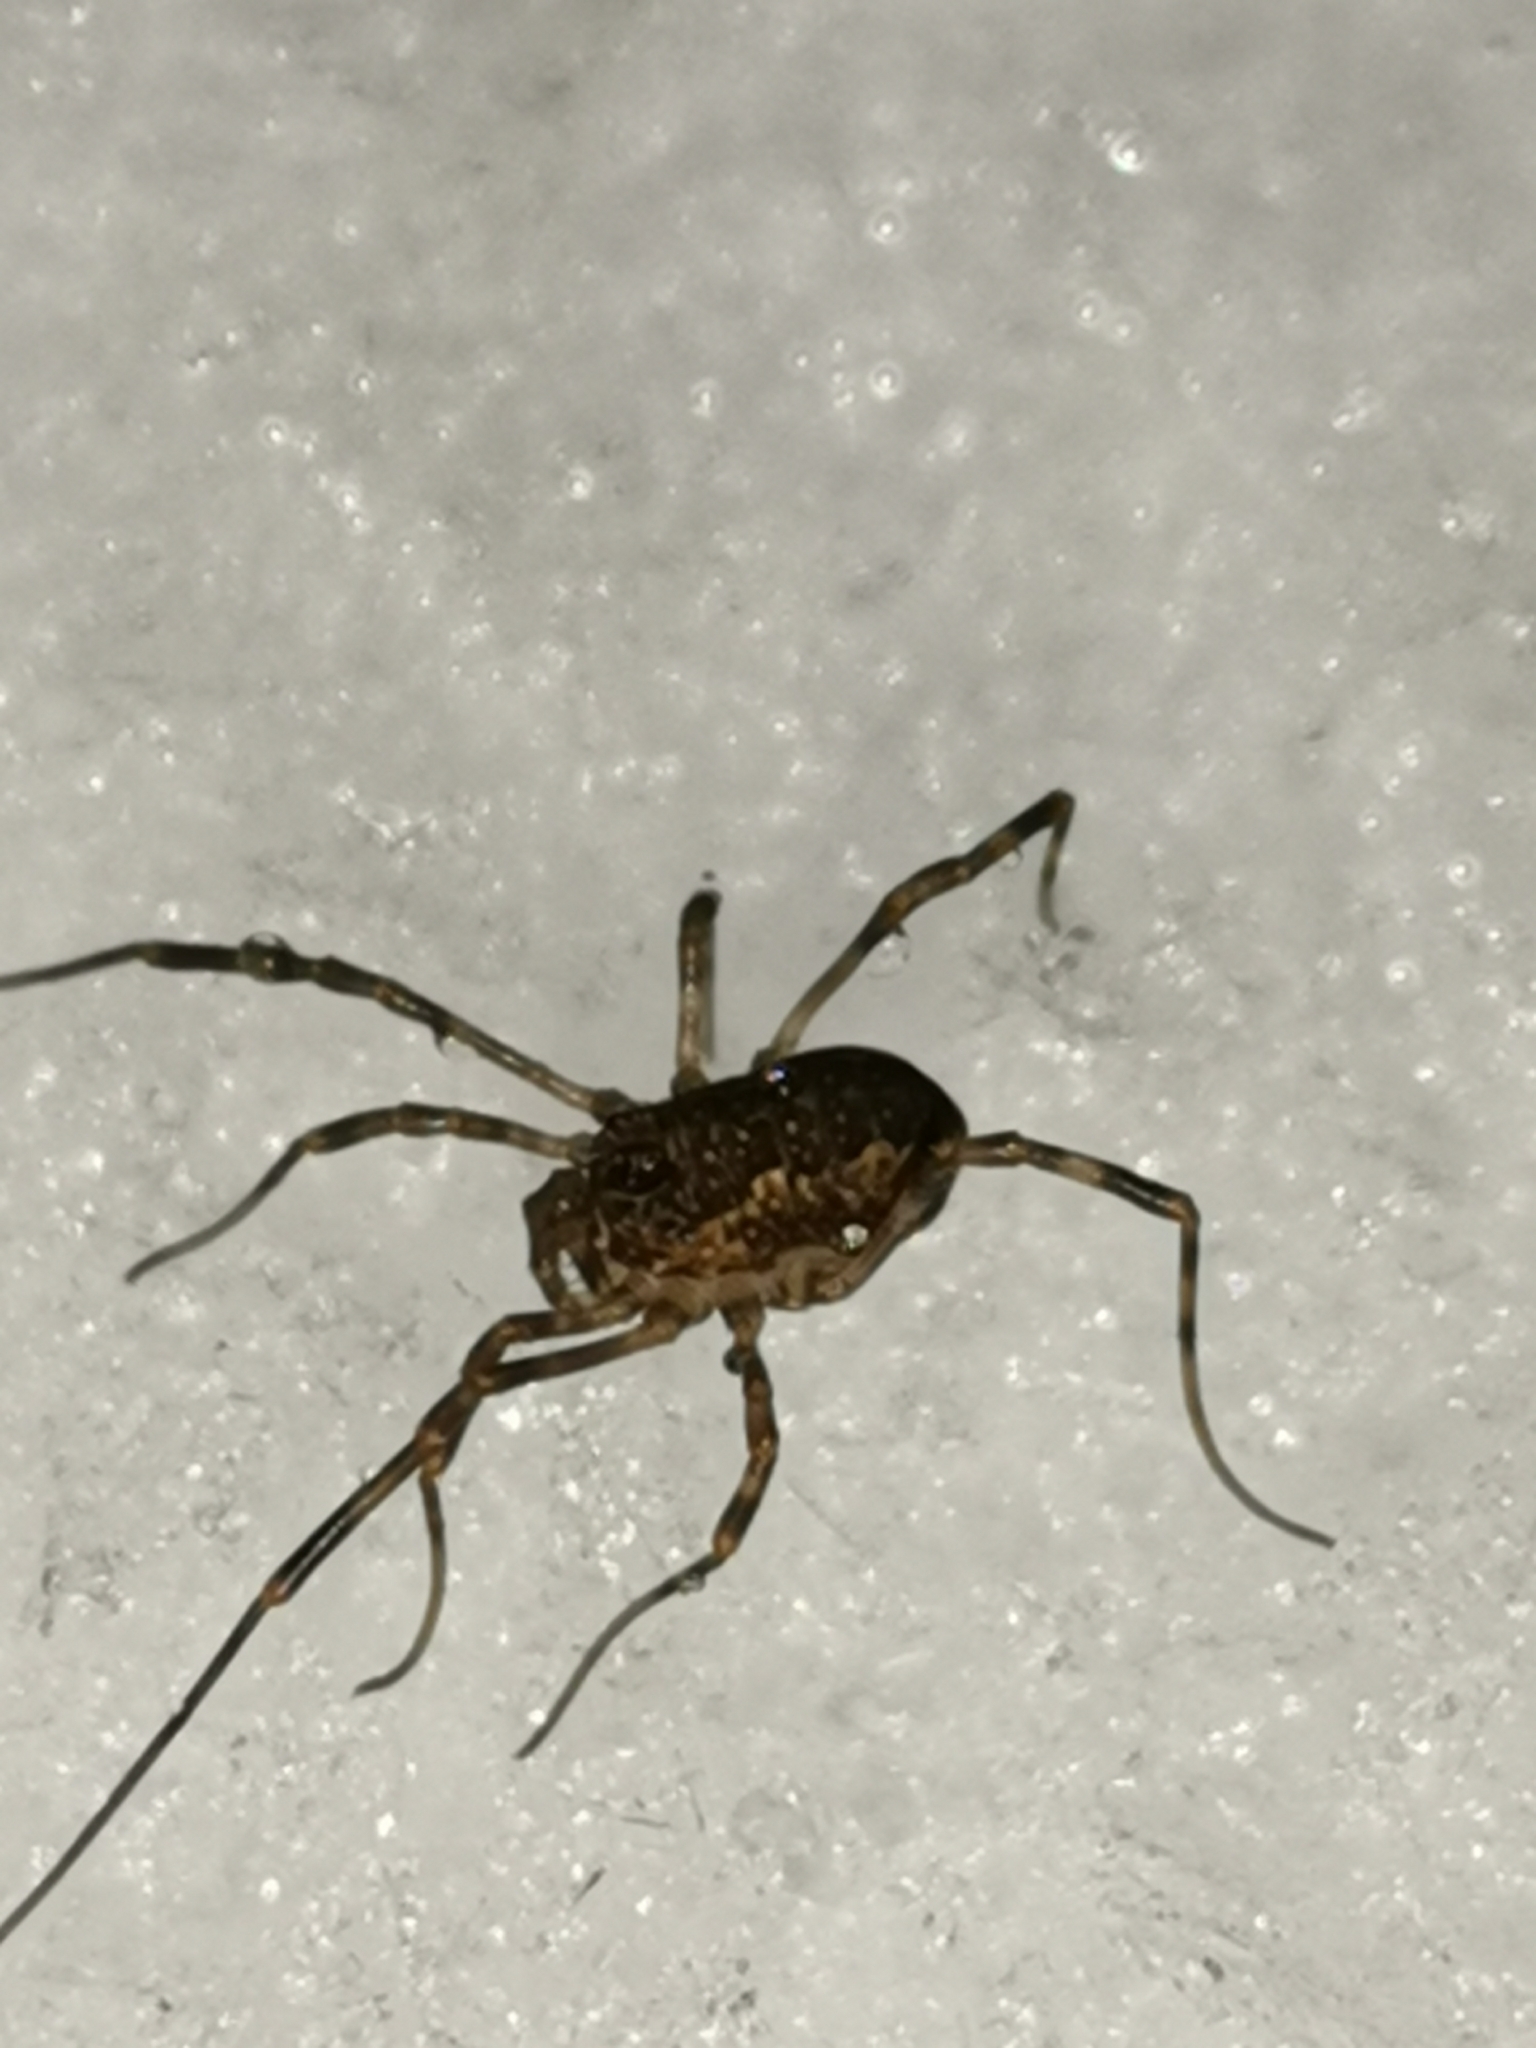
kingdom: Animalia
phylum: Arthropoda
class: Arachnida
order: Opiliones
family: Phalangiidae
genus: Rilaena
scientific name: Rilaena triangularis
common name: Spring harvestman
